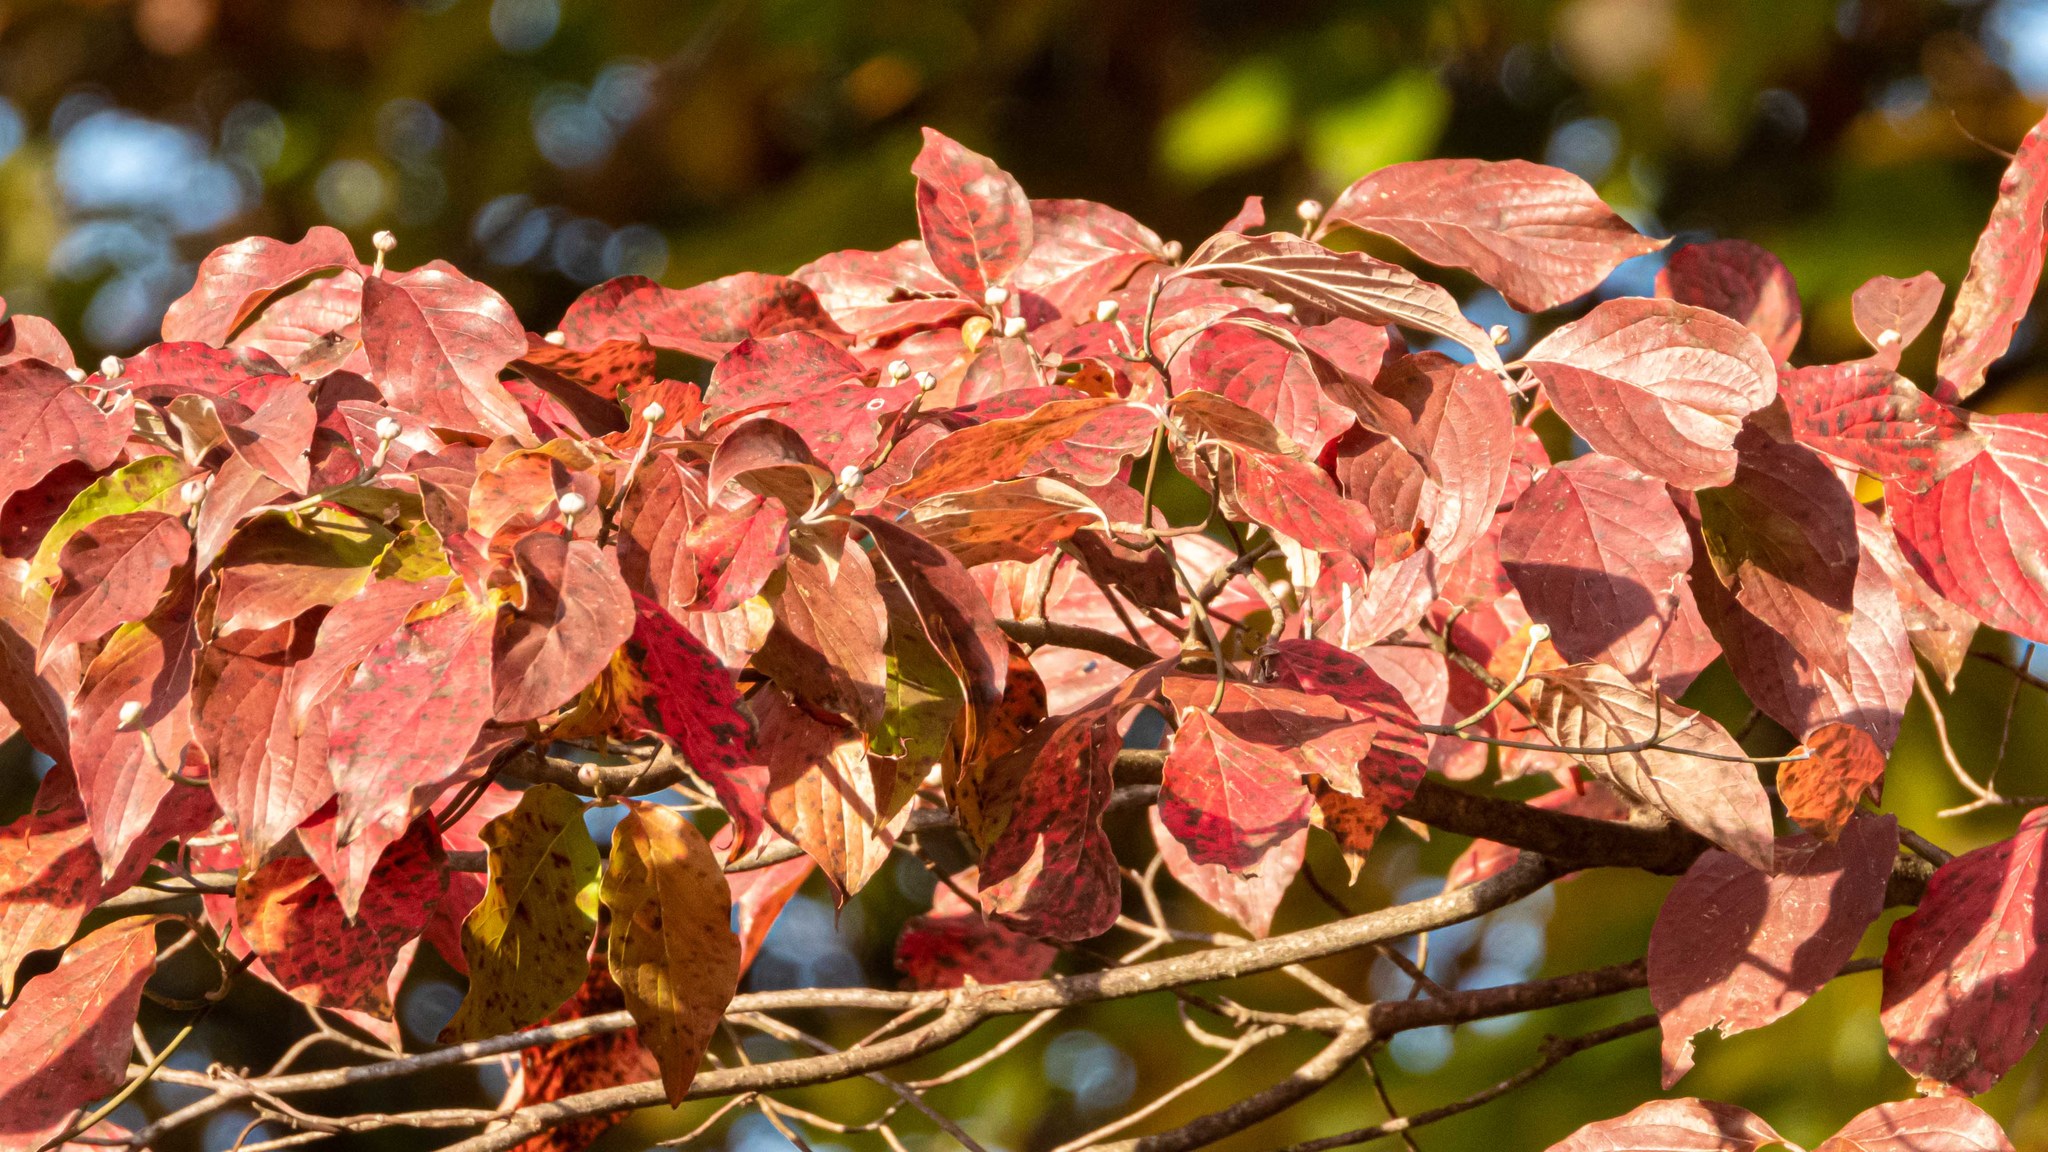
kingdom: Plantae
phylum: Tracheophyta
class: Magnoliopsida
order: Cornales
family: Cornaceae
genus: Cornus
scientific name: Cornus florida
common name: Flowering dogwood
